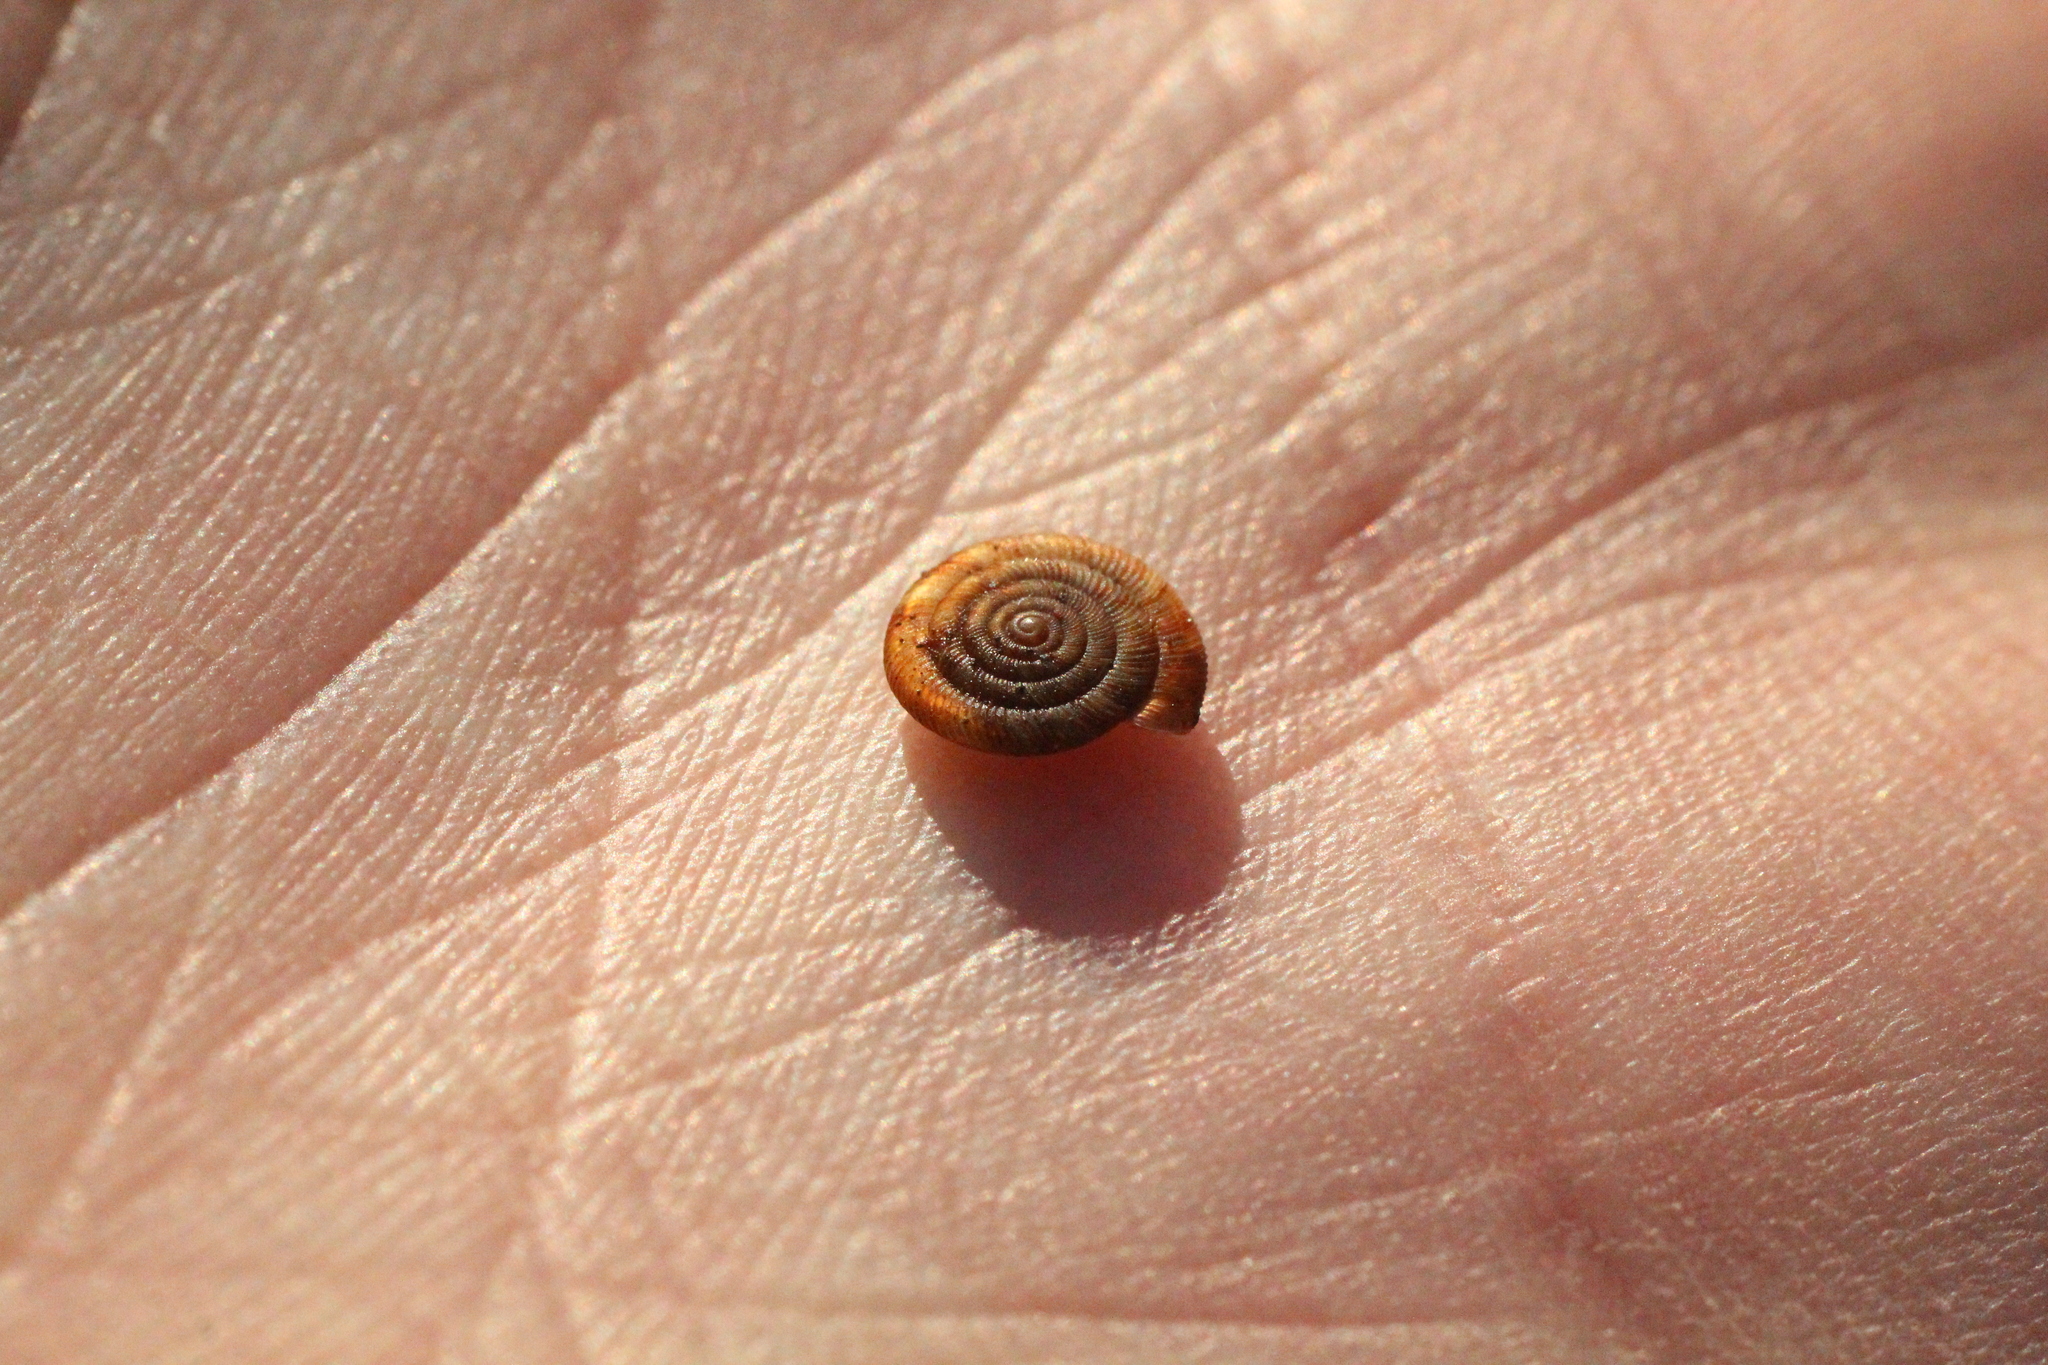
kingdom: Animalia
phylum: Mollusca
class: Gastropoda
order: Stylommatophora
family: Discidae
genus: Discus
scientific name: Discus rotundatus
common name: Rounded snail
